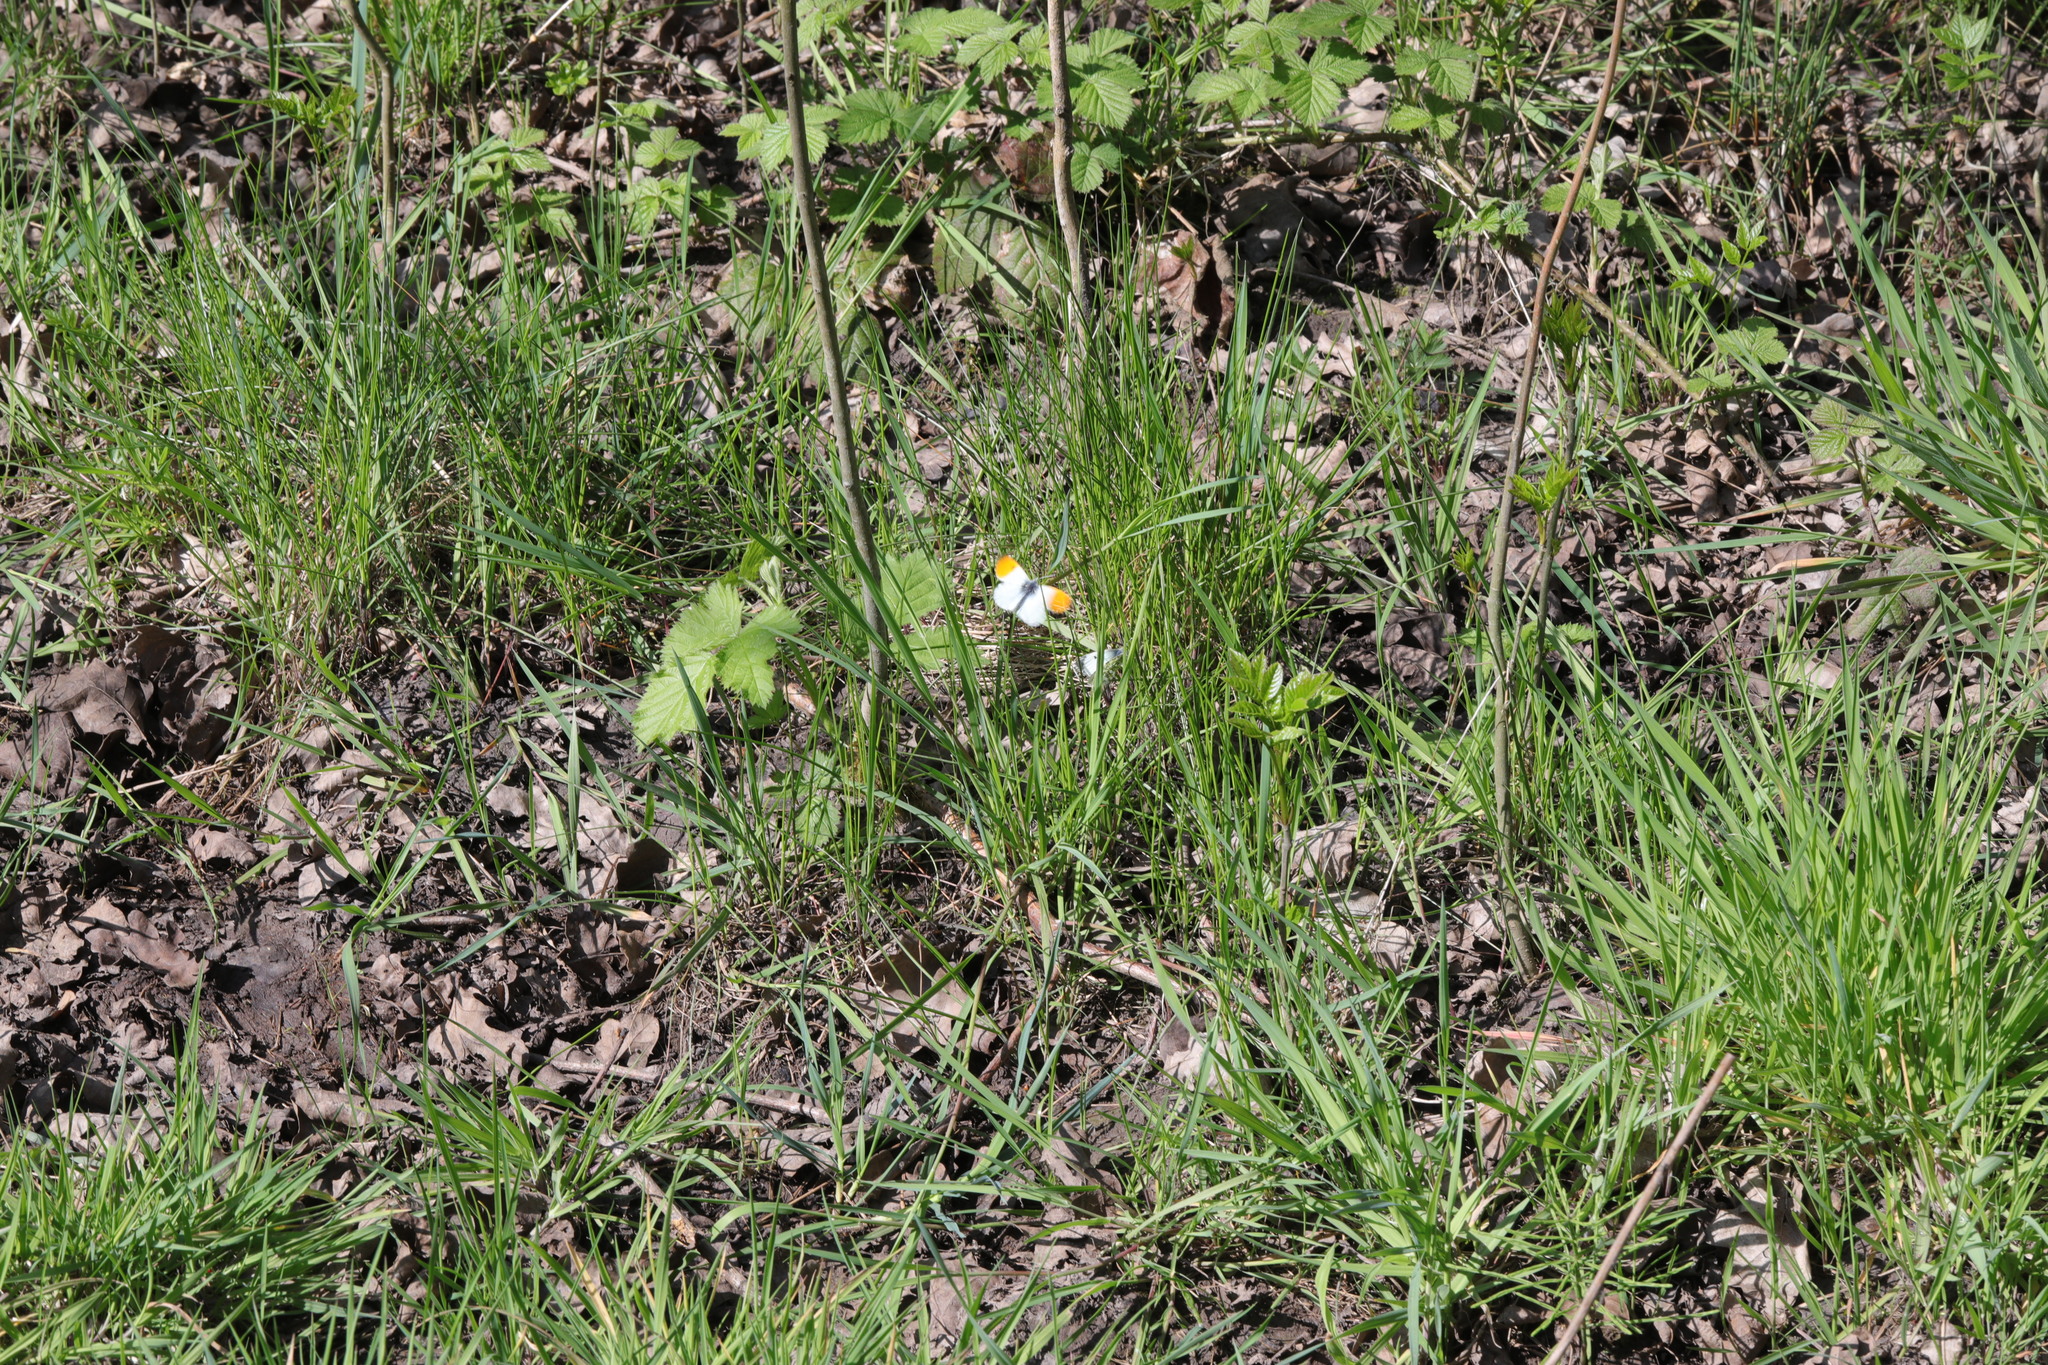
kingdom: Animalia
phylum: Arthropoda
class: Insecta
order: Lepidoptera
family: Pieridae
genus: Anthocharis
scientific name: Anthocharis cardamines
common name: Orange-tip
